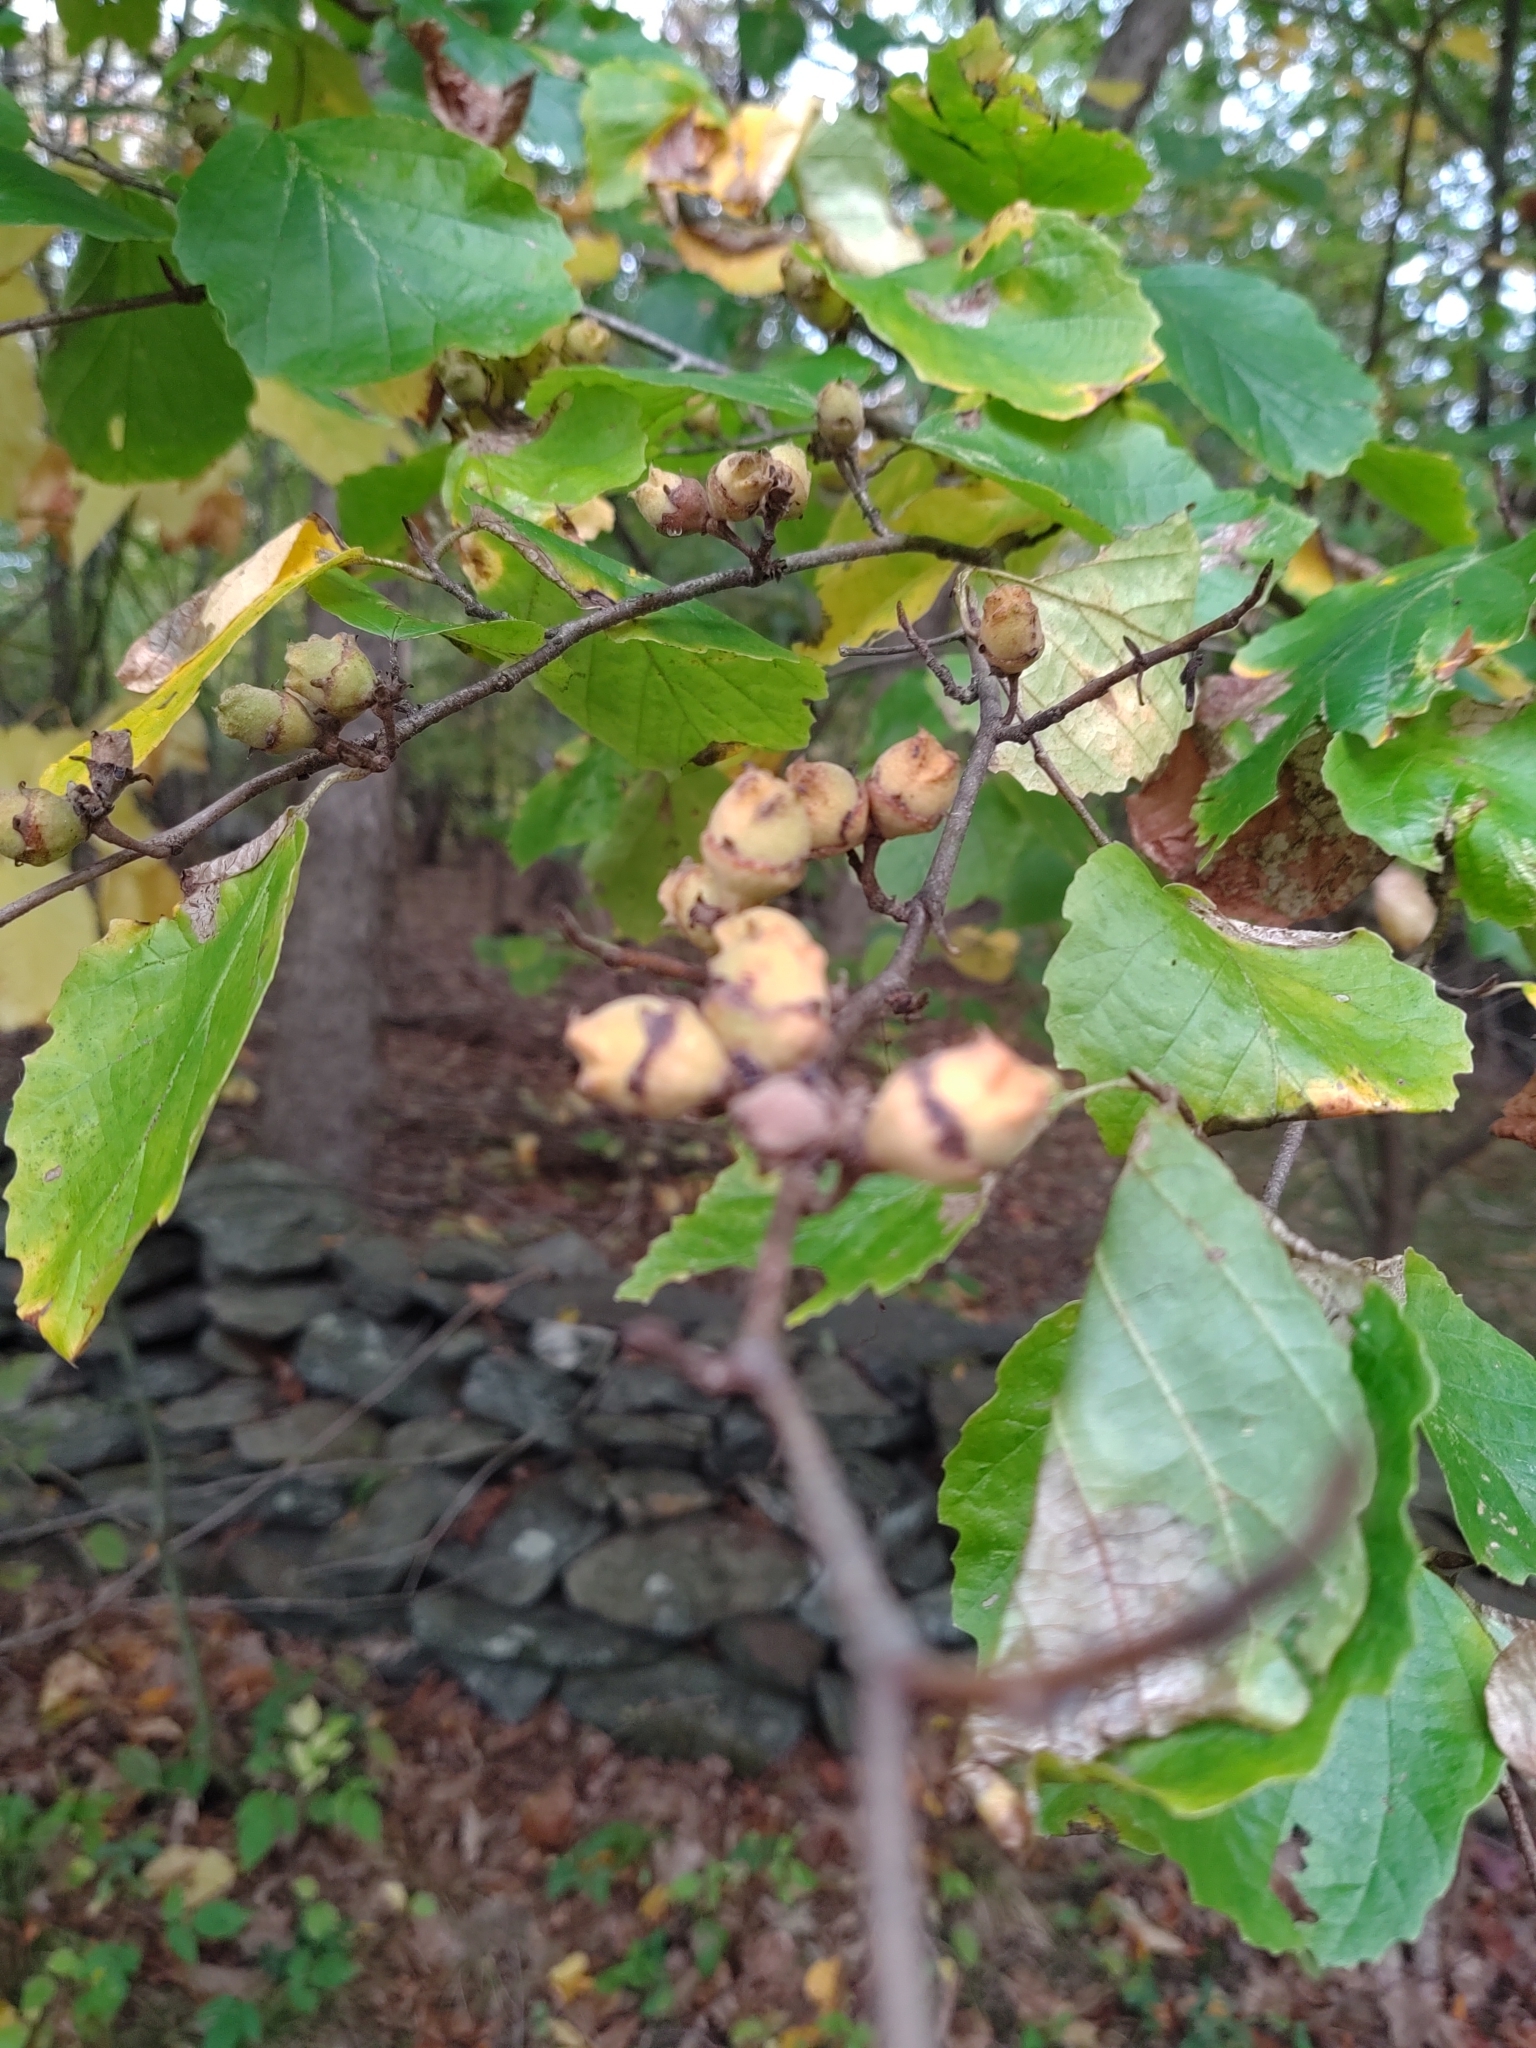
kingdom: Plantae
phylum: Tracheophyta
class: Magnoliopsida
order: Saxifragales
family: Hamamelidaceae
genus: Hamamelis
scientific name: Hamamelis virginiana
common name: Witch-hazel
